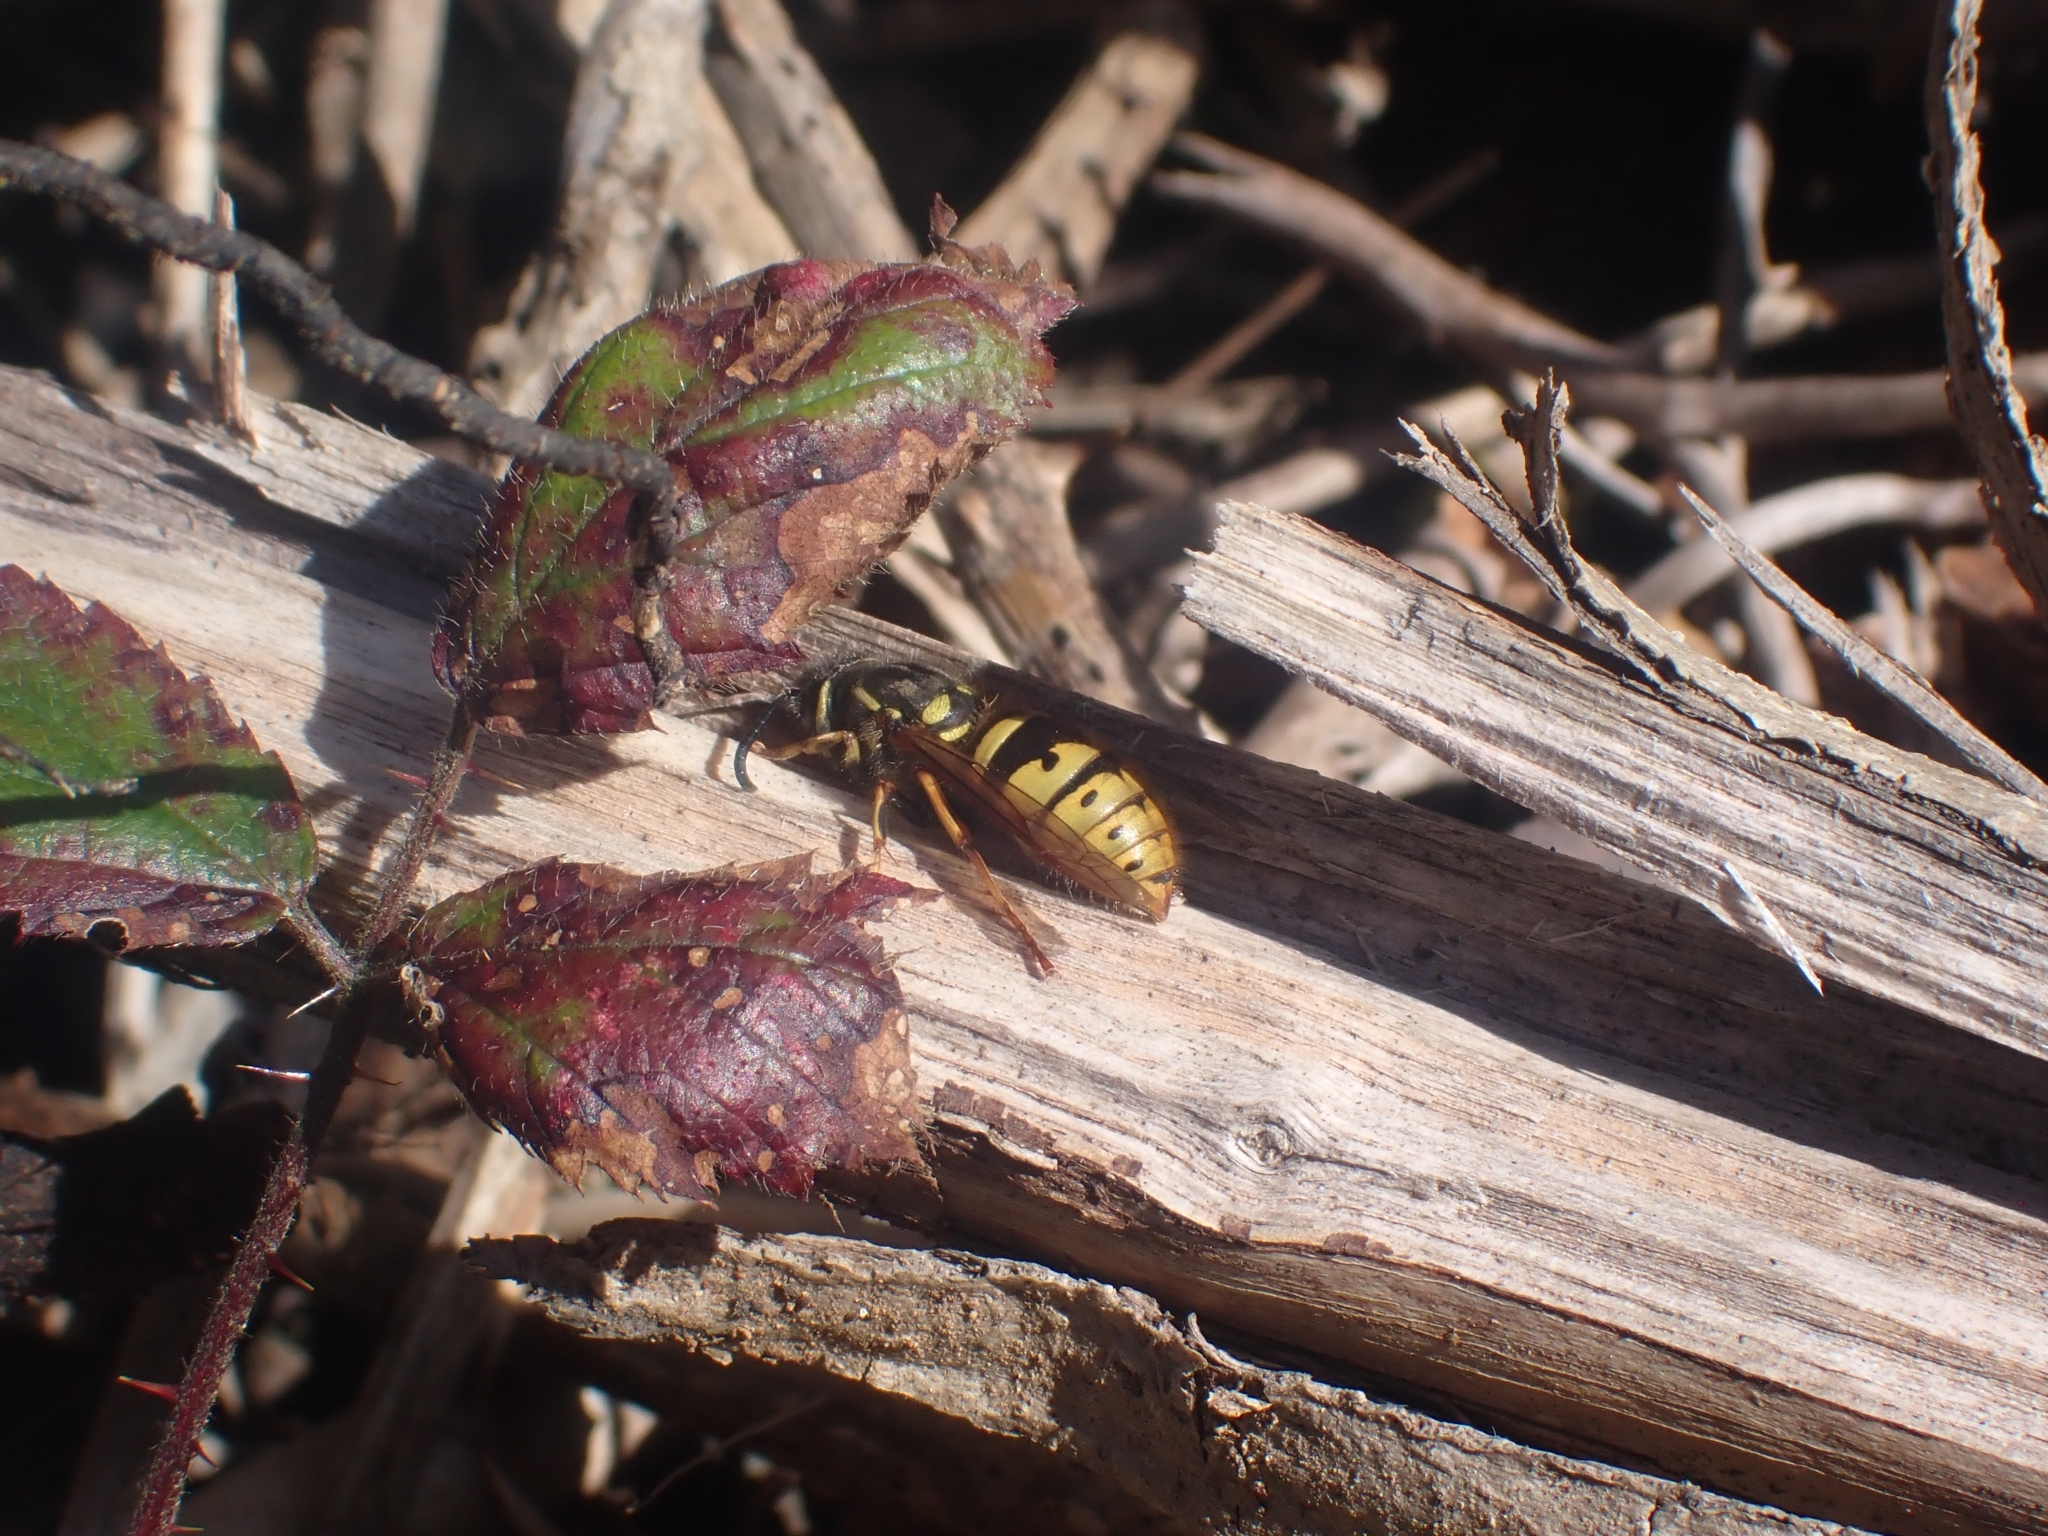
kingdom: Animalia
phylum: Arthropoda
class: Insecta
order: Hymenoptera
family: Vespidae
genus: Vespula
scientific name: Vespula vulgaris
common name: Common wasp
